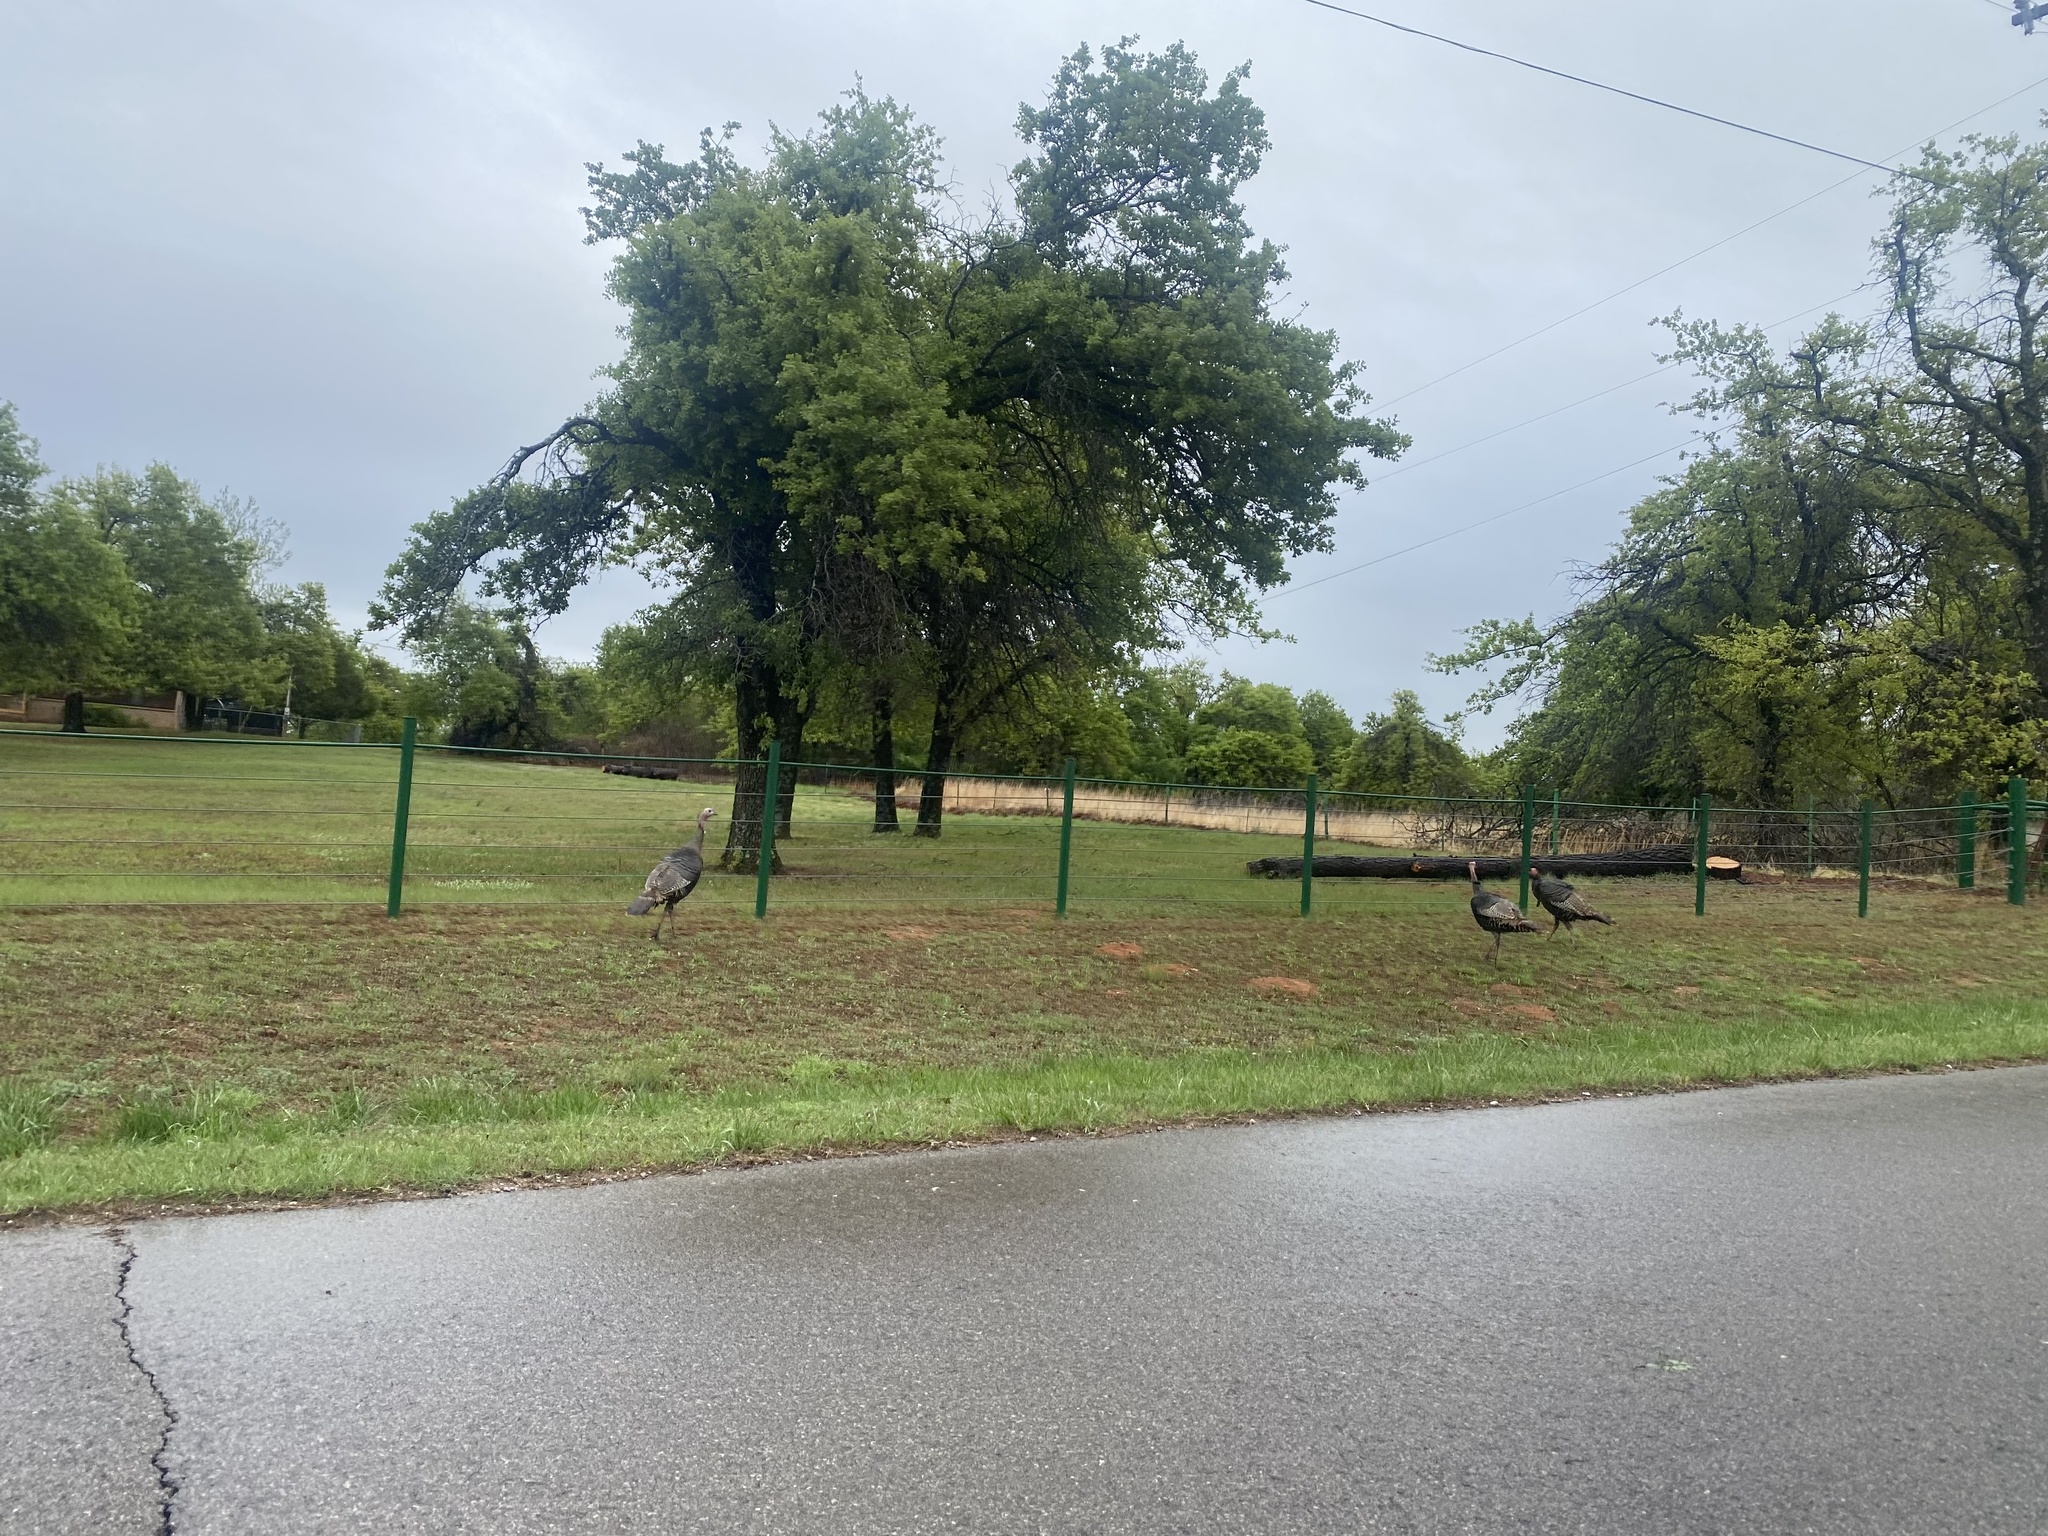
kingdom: Animalia
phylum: Chordata
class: Aves
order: Galliformes
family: Phasianidae
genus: Meleagris
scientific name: Meleagris gallopavo
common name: Wild turkey
